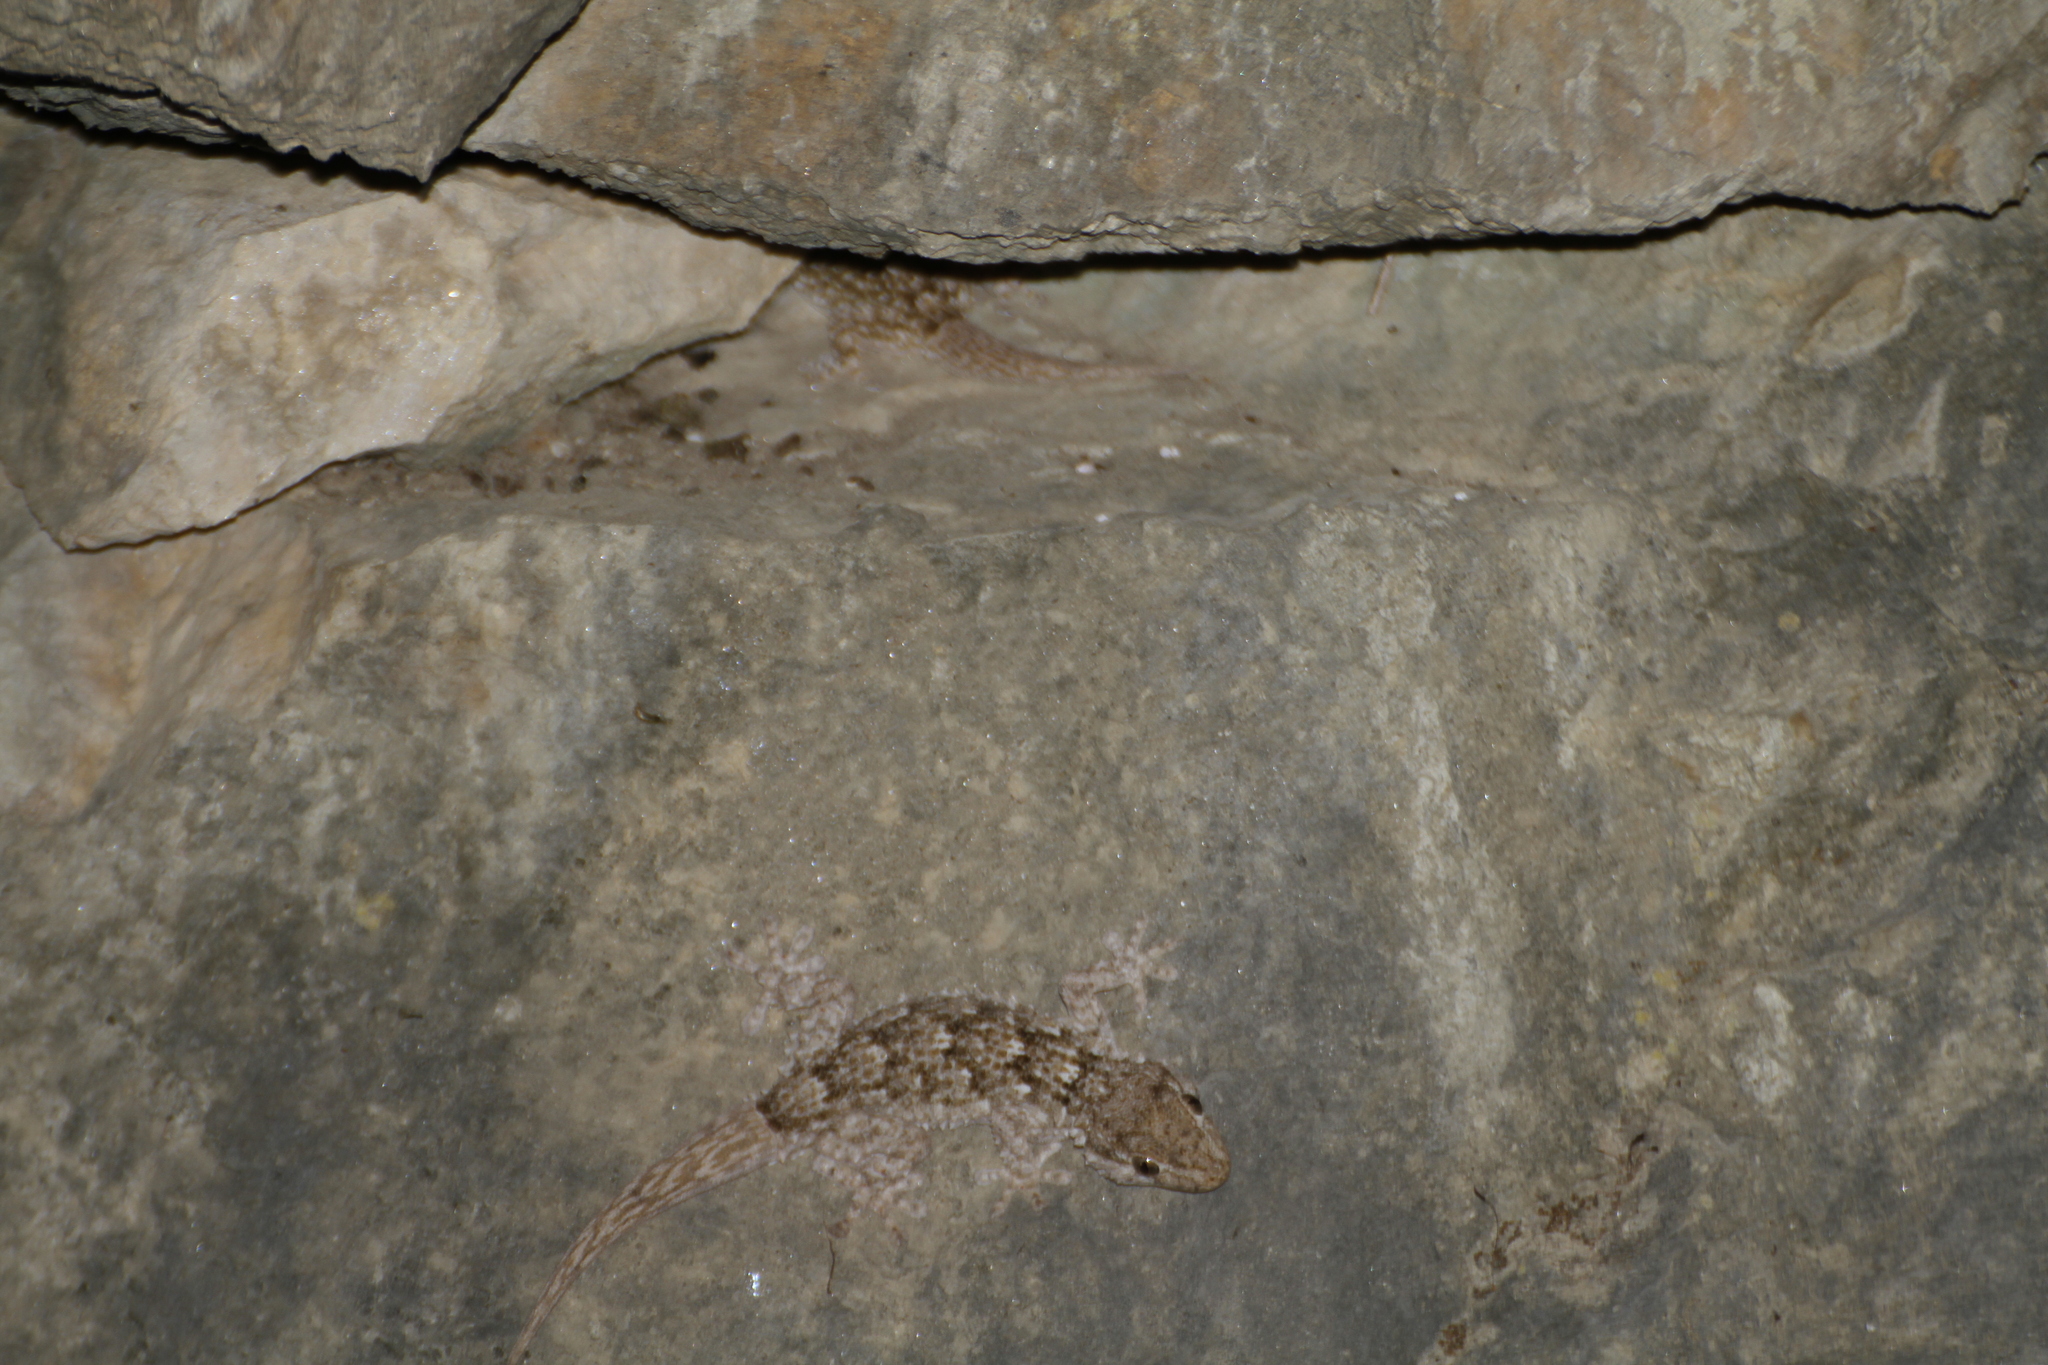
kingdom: Animalia
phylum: Chordata
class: Squamata
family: Phyllodactylidae
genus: Tarentola
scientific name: Tarentola mauritanica
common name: Moorish gecko
